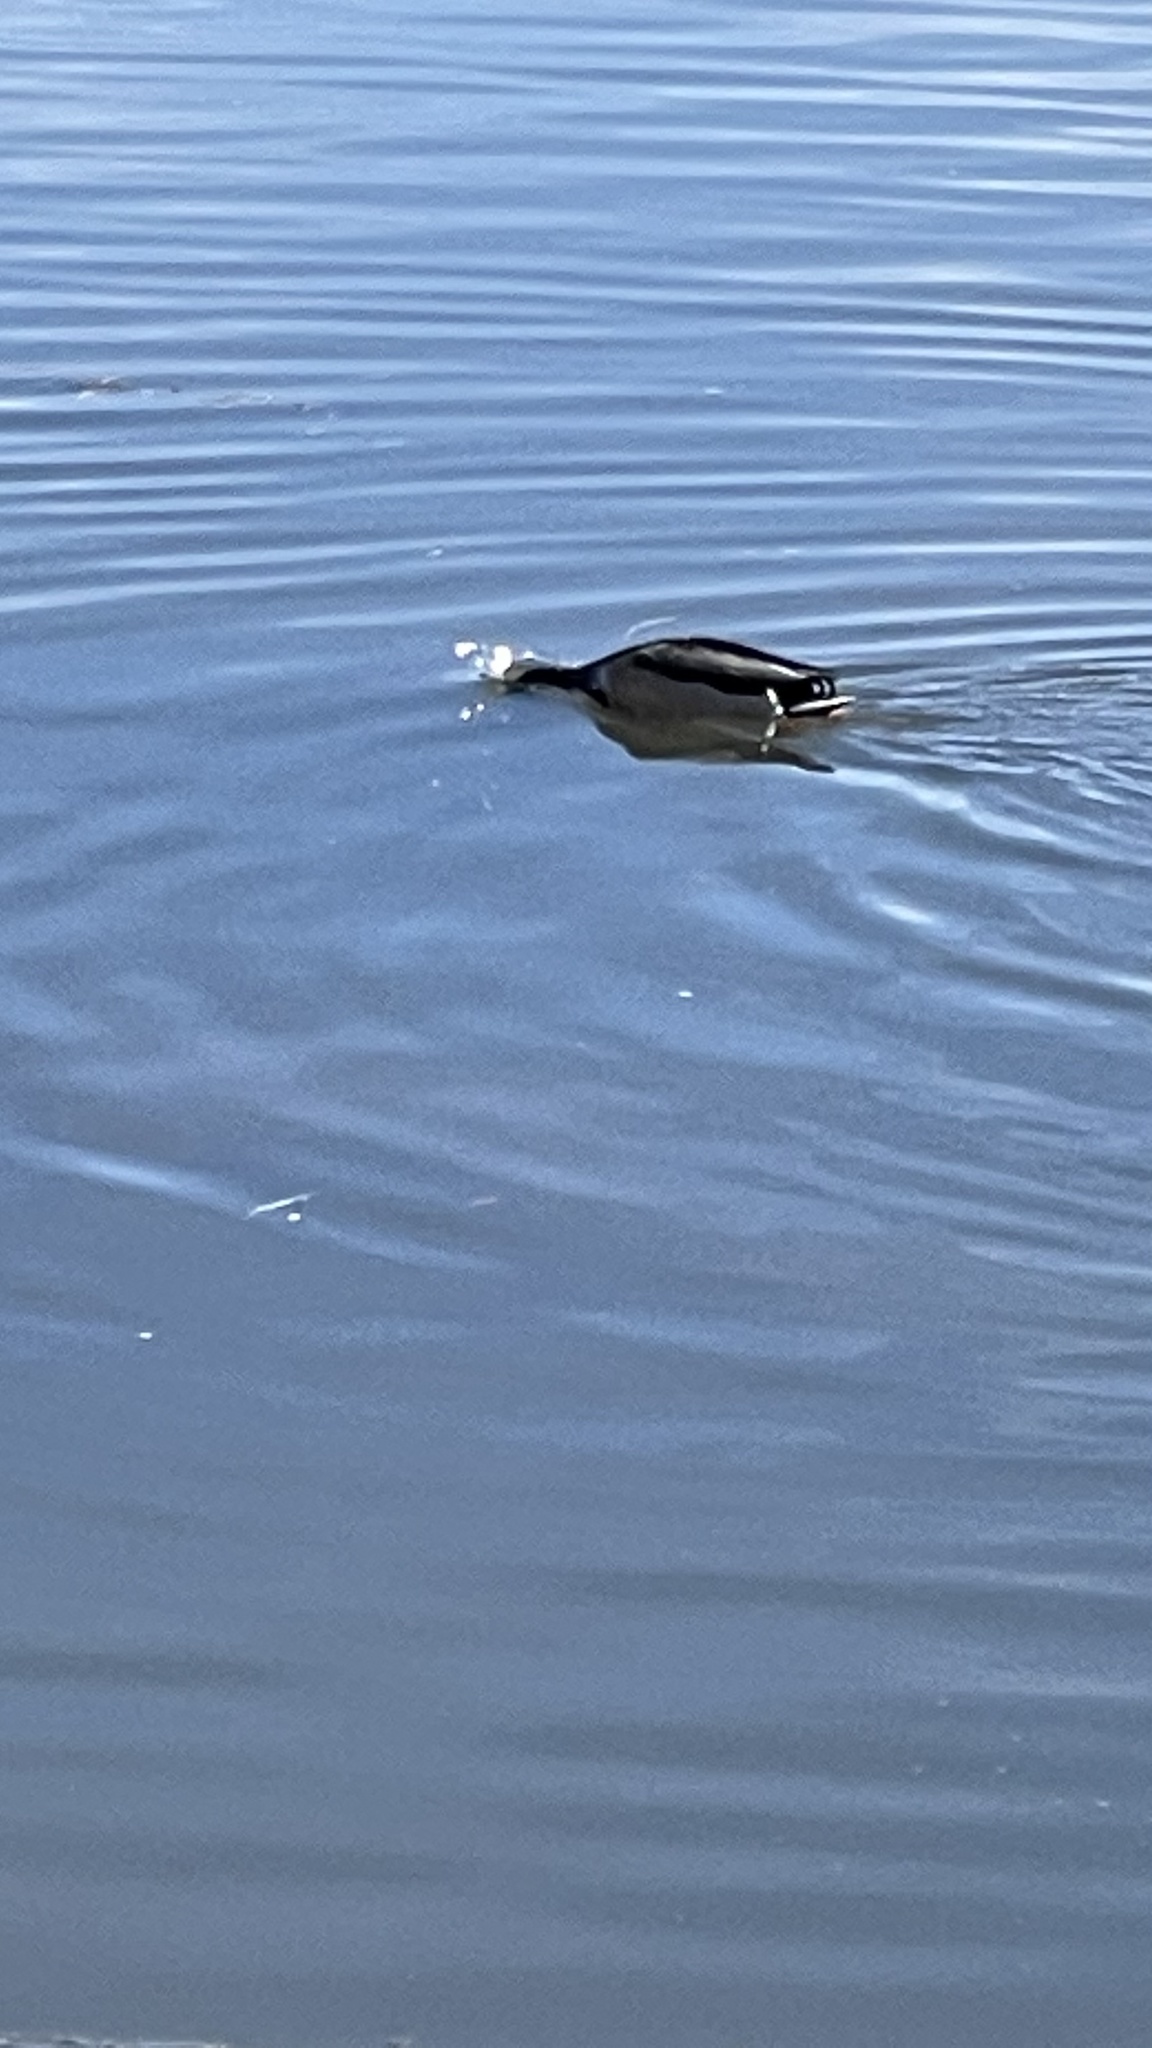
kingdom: Animalia
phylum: Chordata
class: Aves
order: Anseriformes
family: Anatidae
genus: Anas
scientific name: Anas platyrhynchos
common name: Mallard
